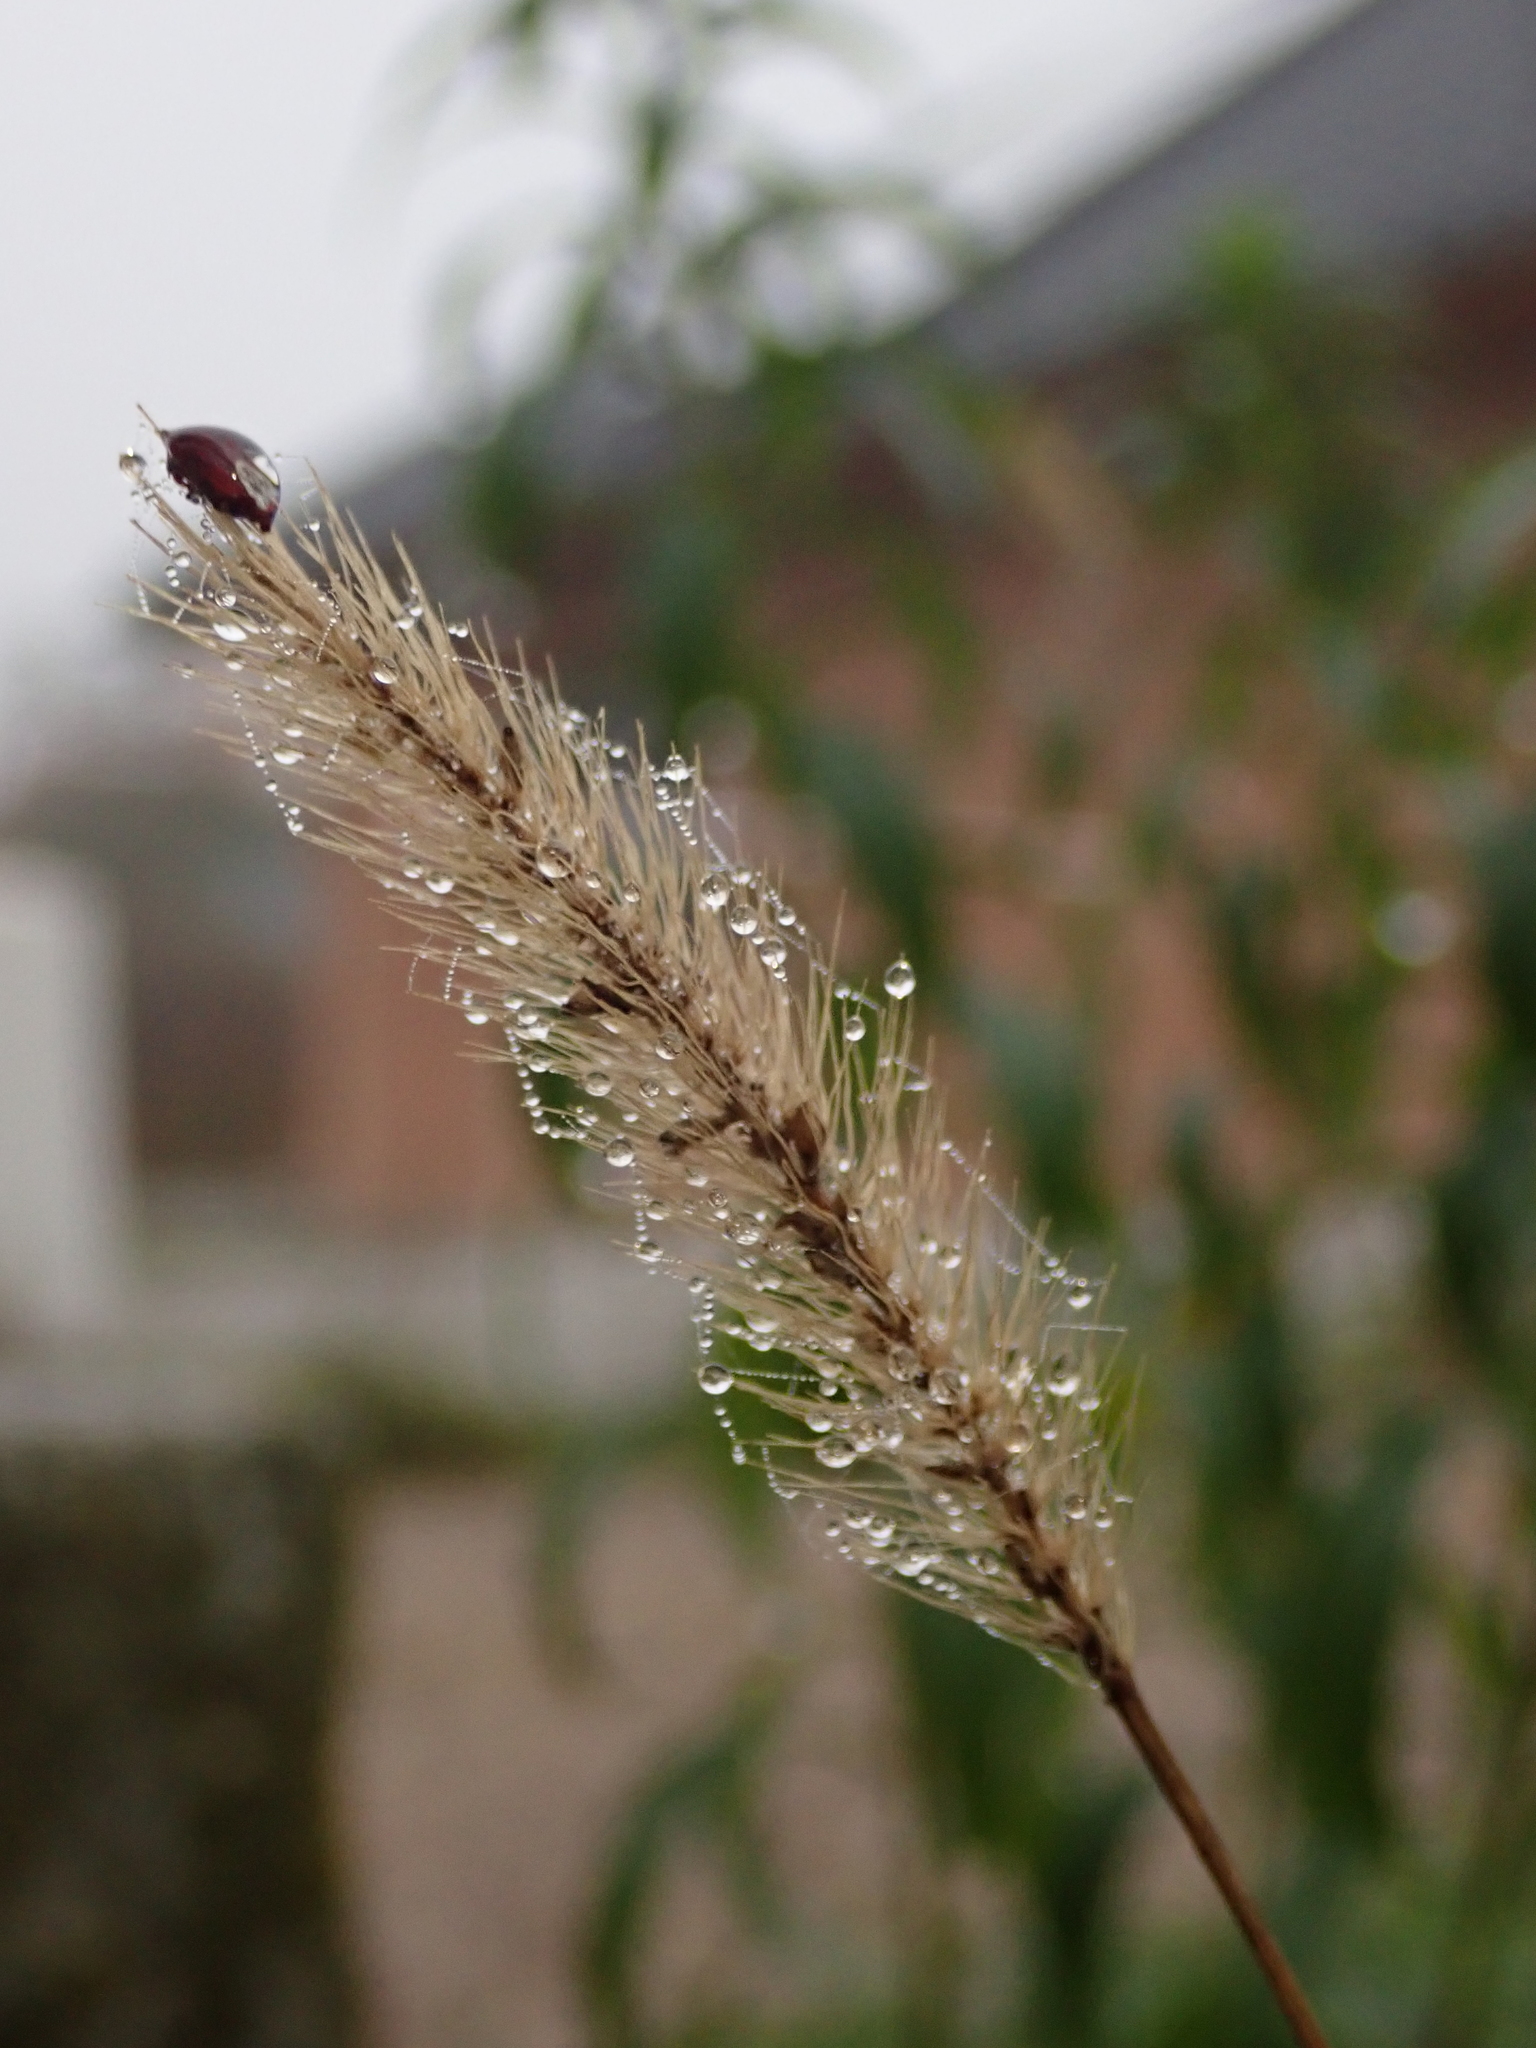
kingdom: Plantae
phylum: Tracheophyta
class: Liliopsida
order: Poales
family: Poaceae
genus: Setaria
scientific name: Setaria viridis
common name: Green bristlegrass
